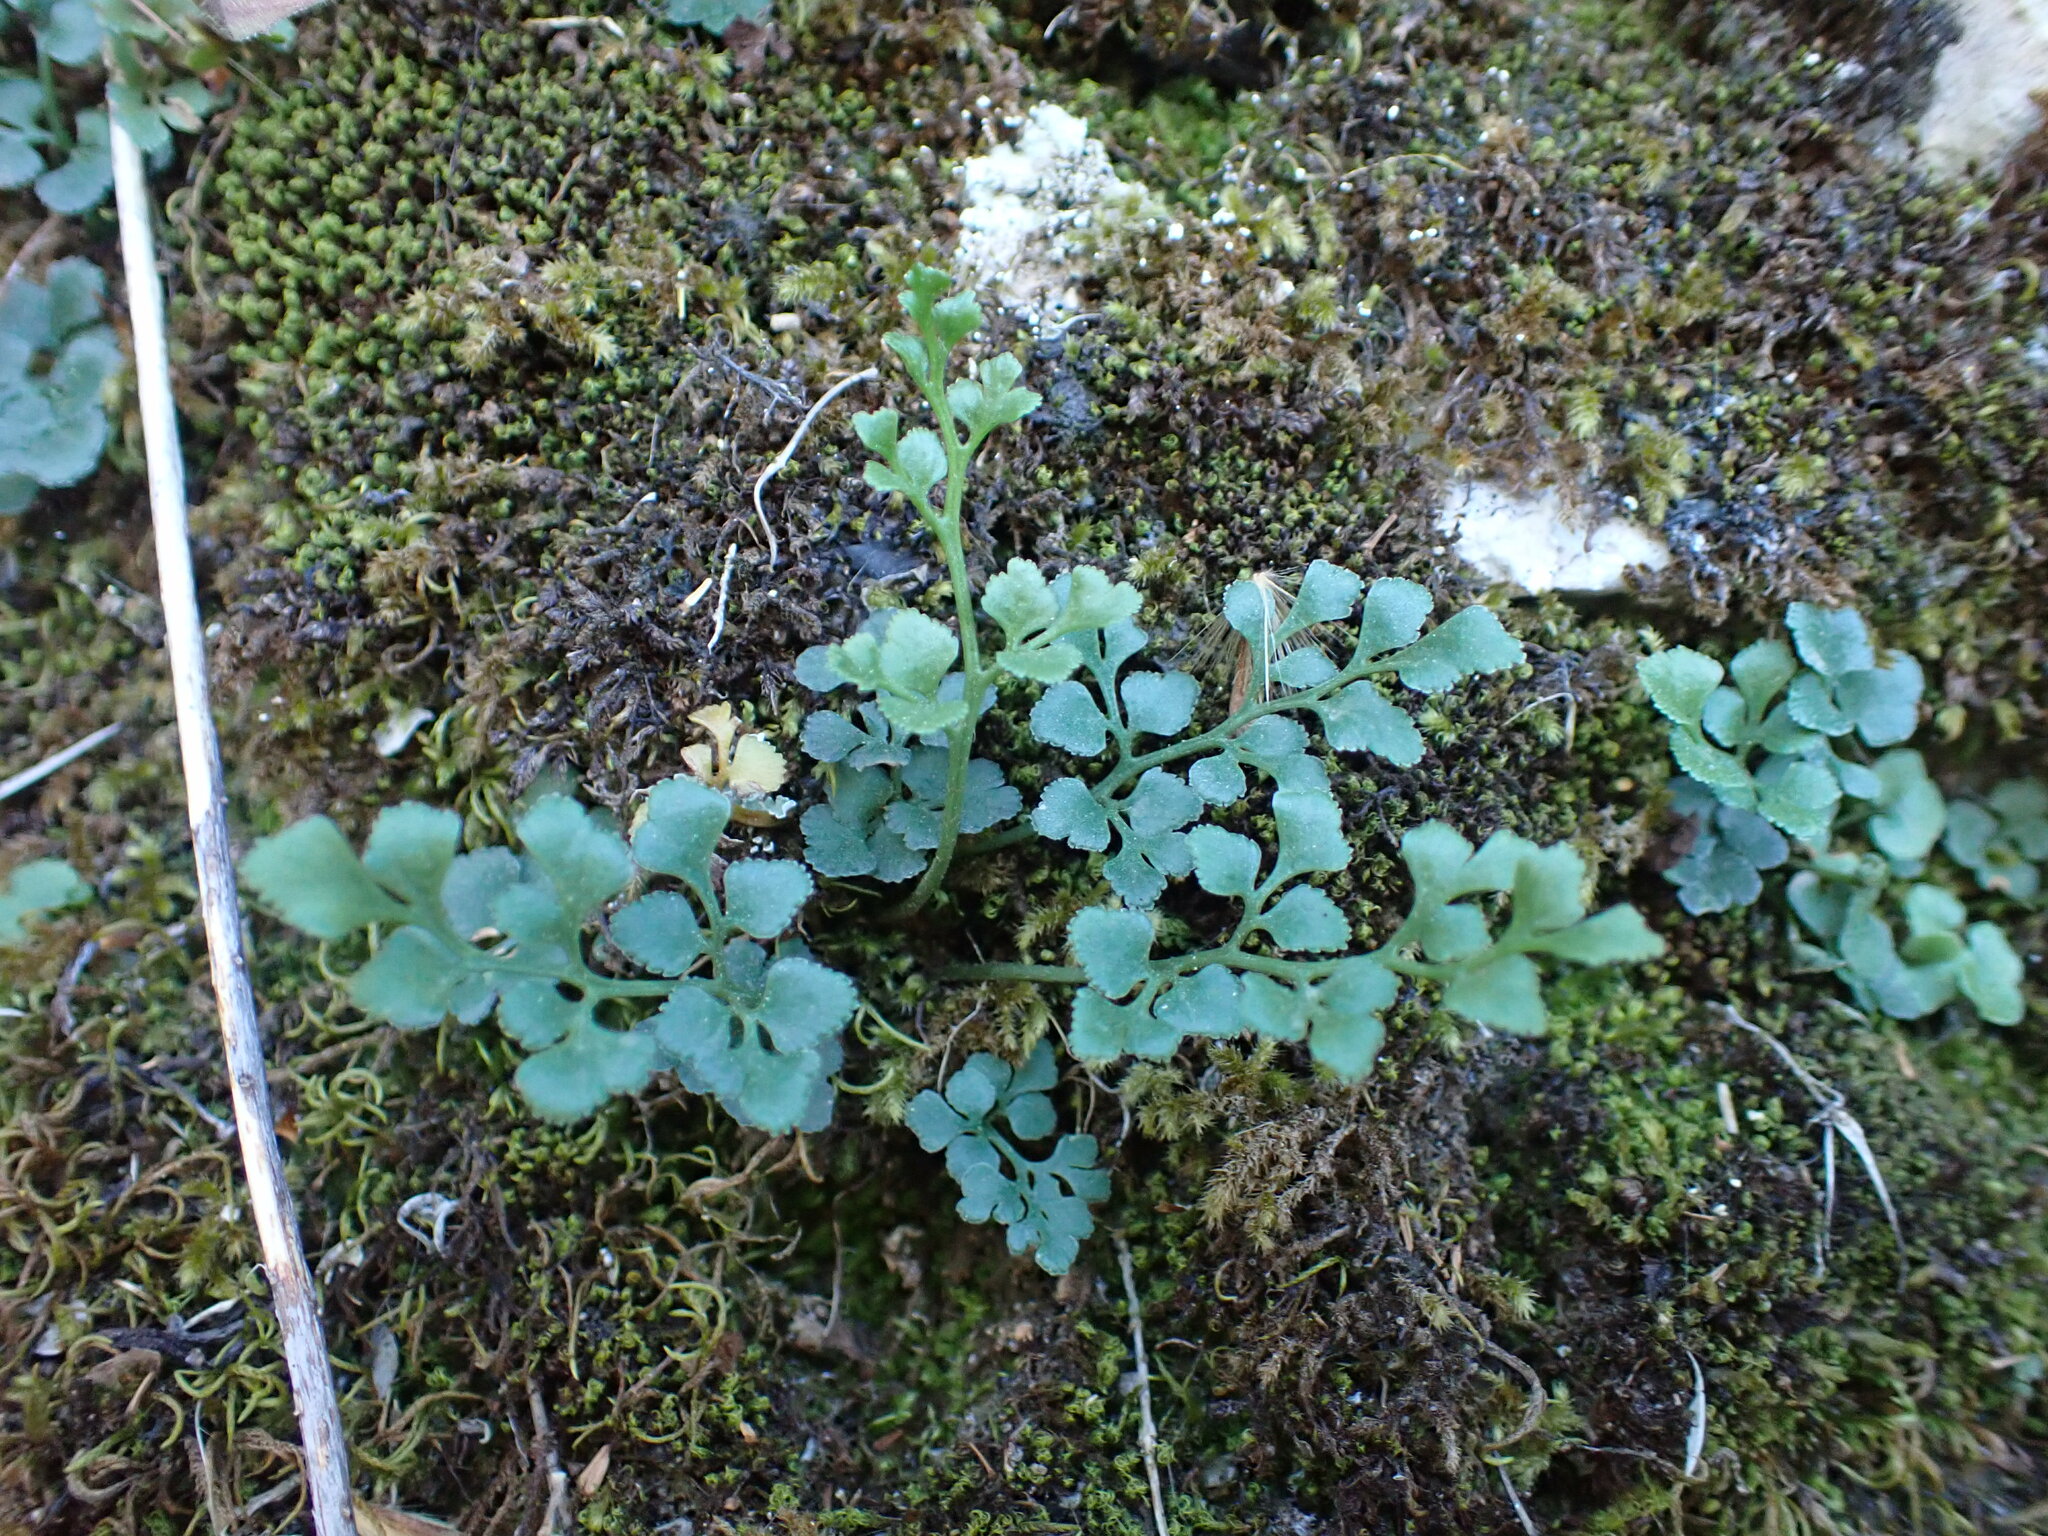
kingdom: Plantae
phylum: Tracheophyta
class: Polypodiopsida
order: Polypodiales
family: Aspleniaceae
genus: Asplenium
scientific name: Asplenium ruta-muraria
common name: Wall-rue
